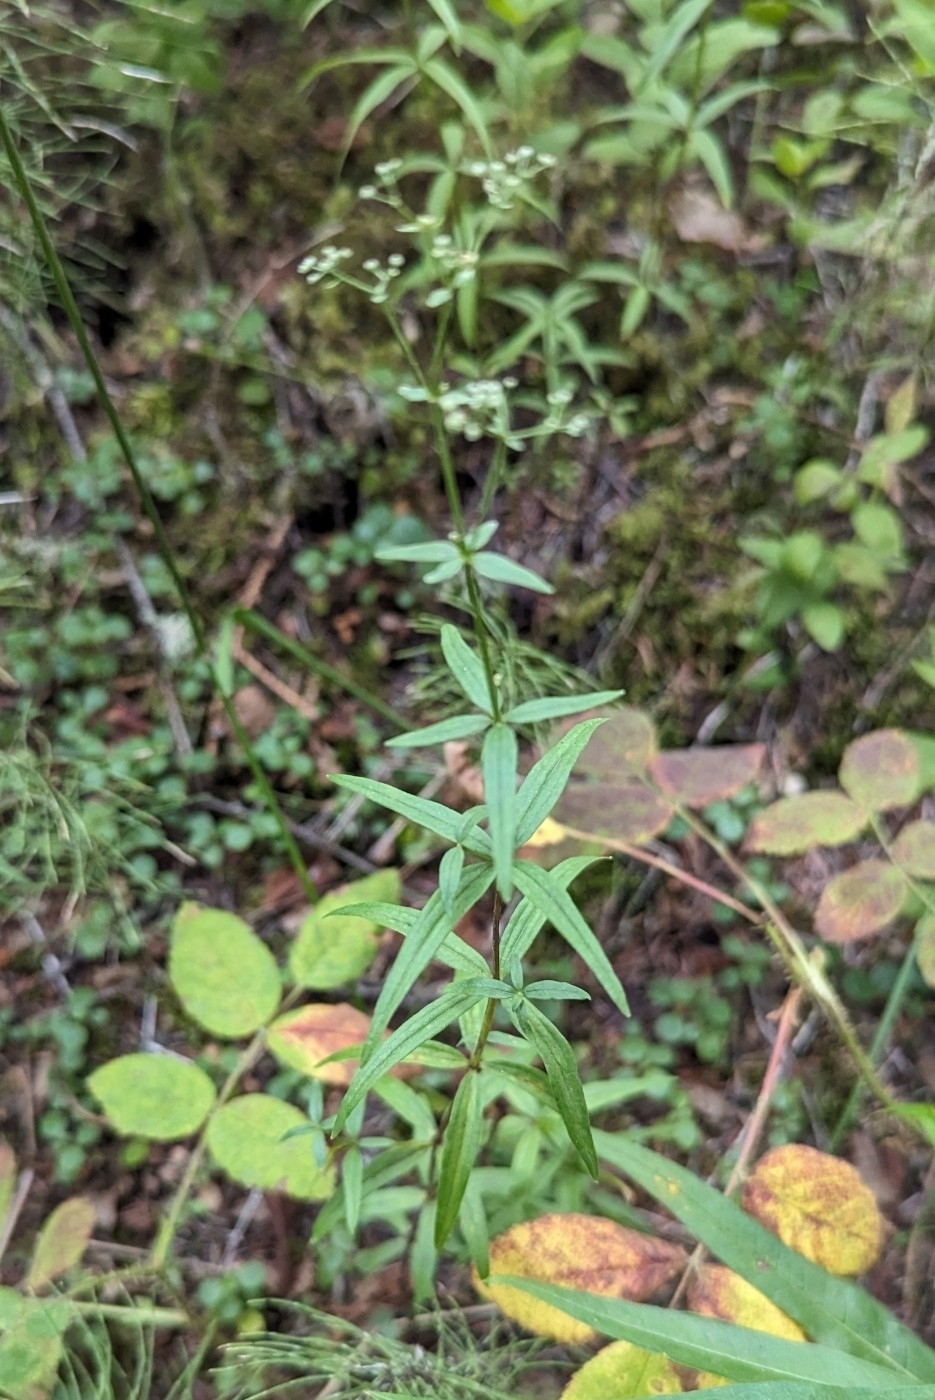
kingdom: Plantae
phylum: Tracheophyta
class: Magnoliopsida
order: Gentianales
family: Rubiaceae
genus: Galium
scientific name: Galium boreale
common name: Northern bedstraw
